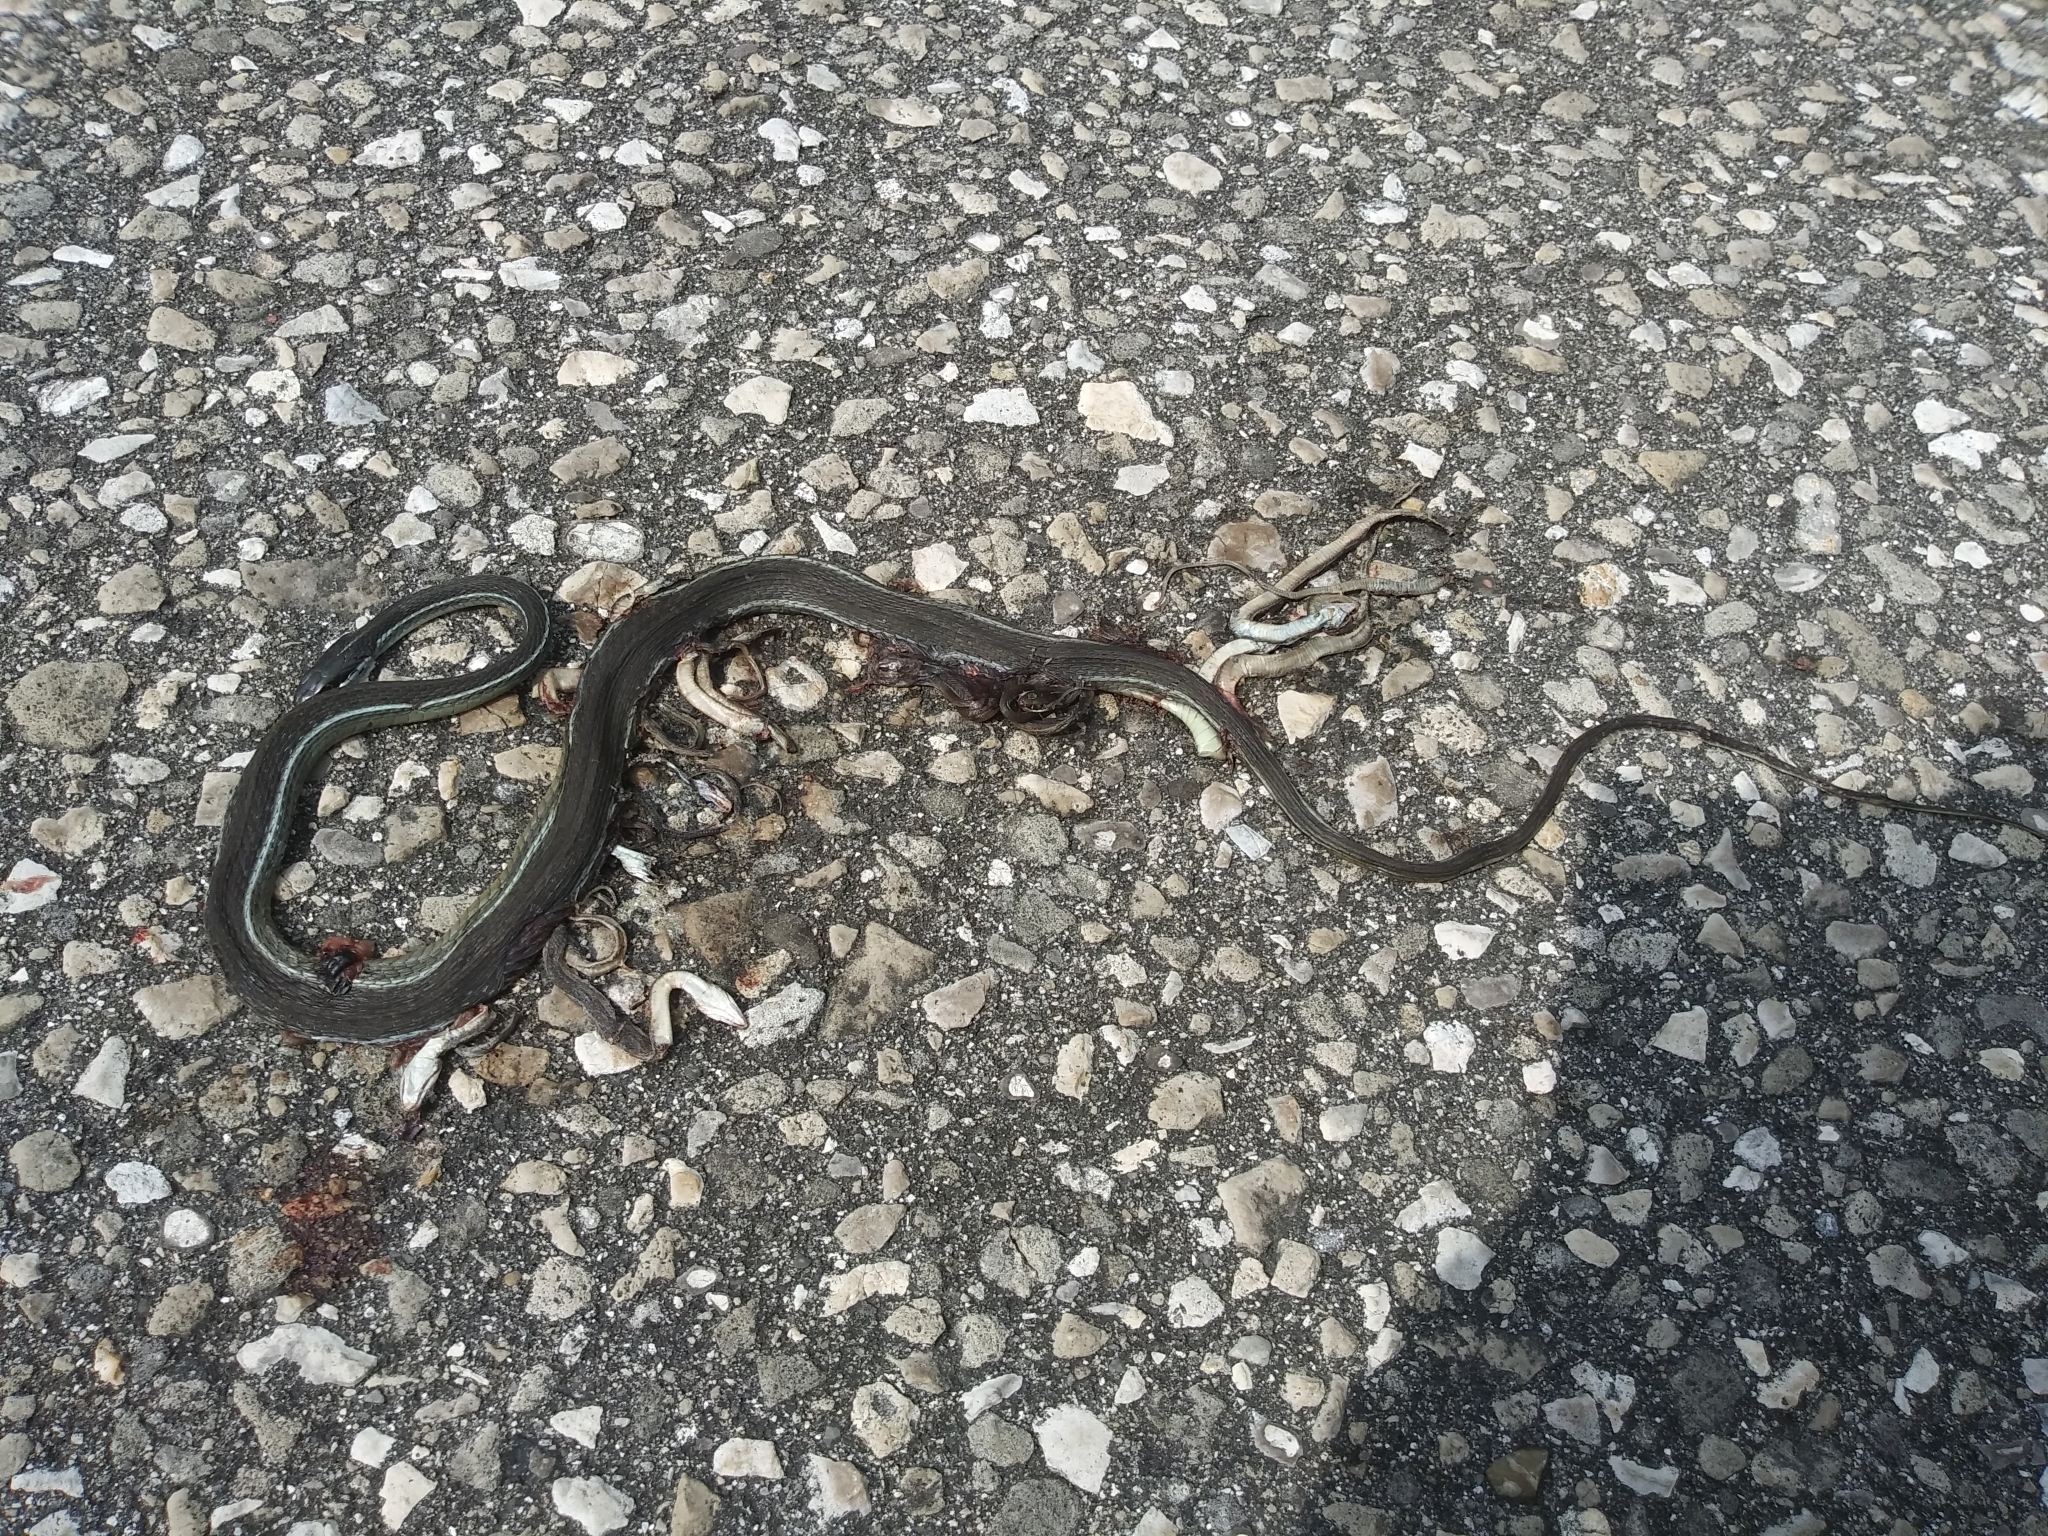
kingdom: Animalia
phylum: Chordata
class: Squamata
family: Colubridae
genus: Thamnophis
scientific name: Thamnophis saurita
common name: Eastern ribbonsnake
